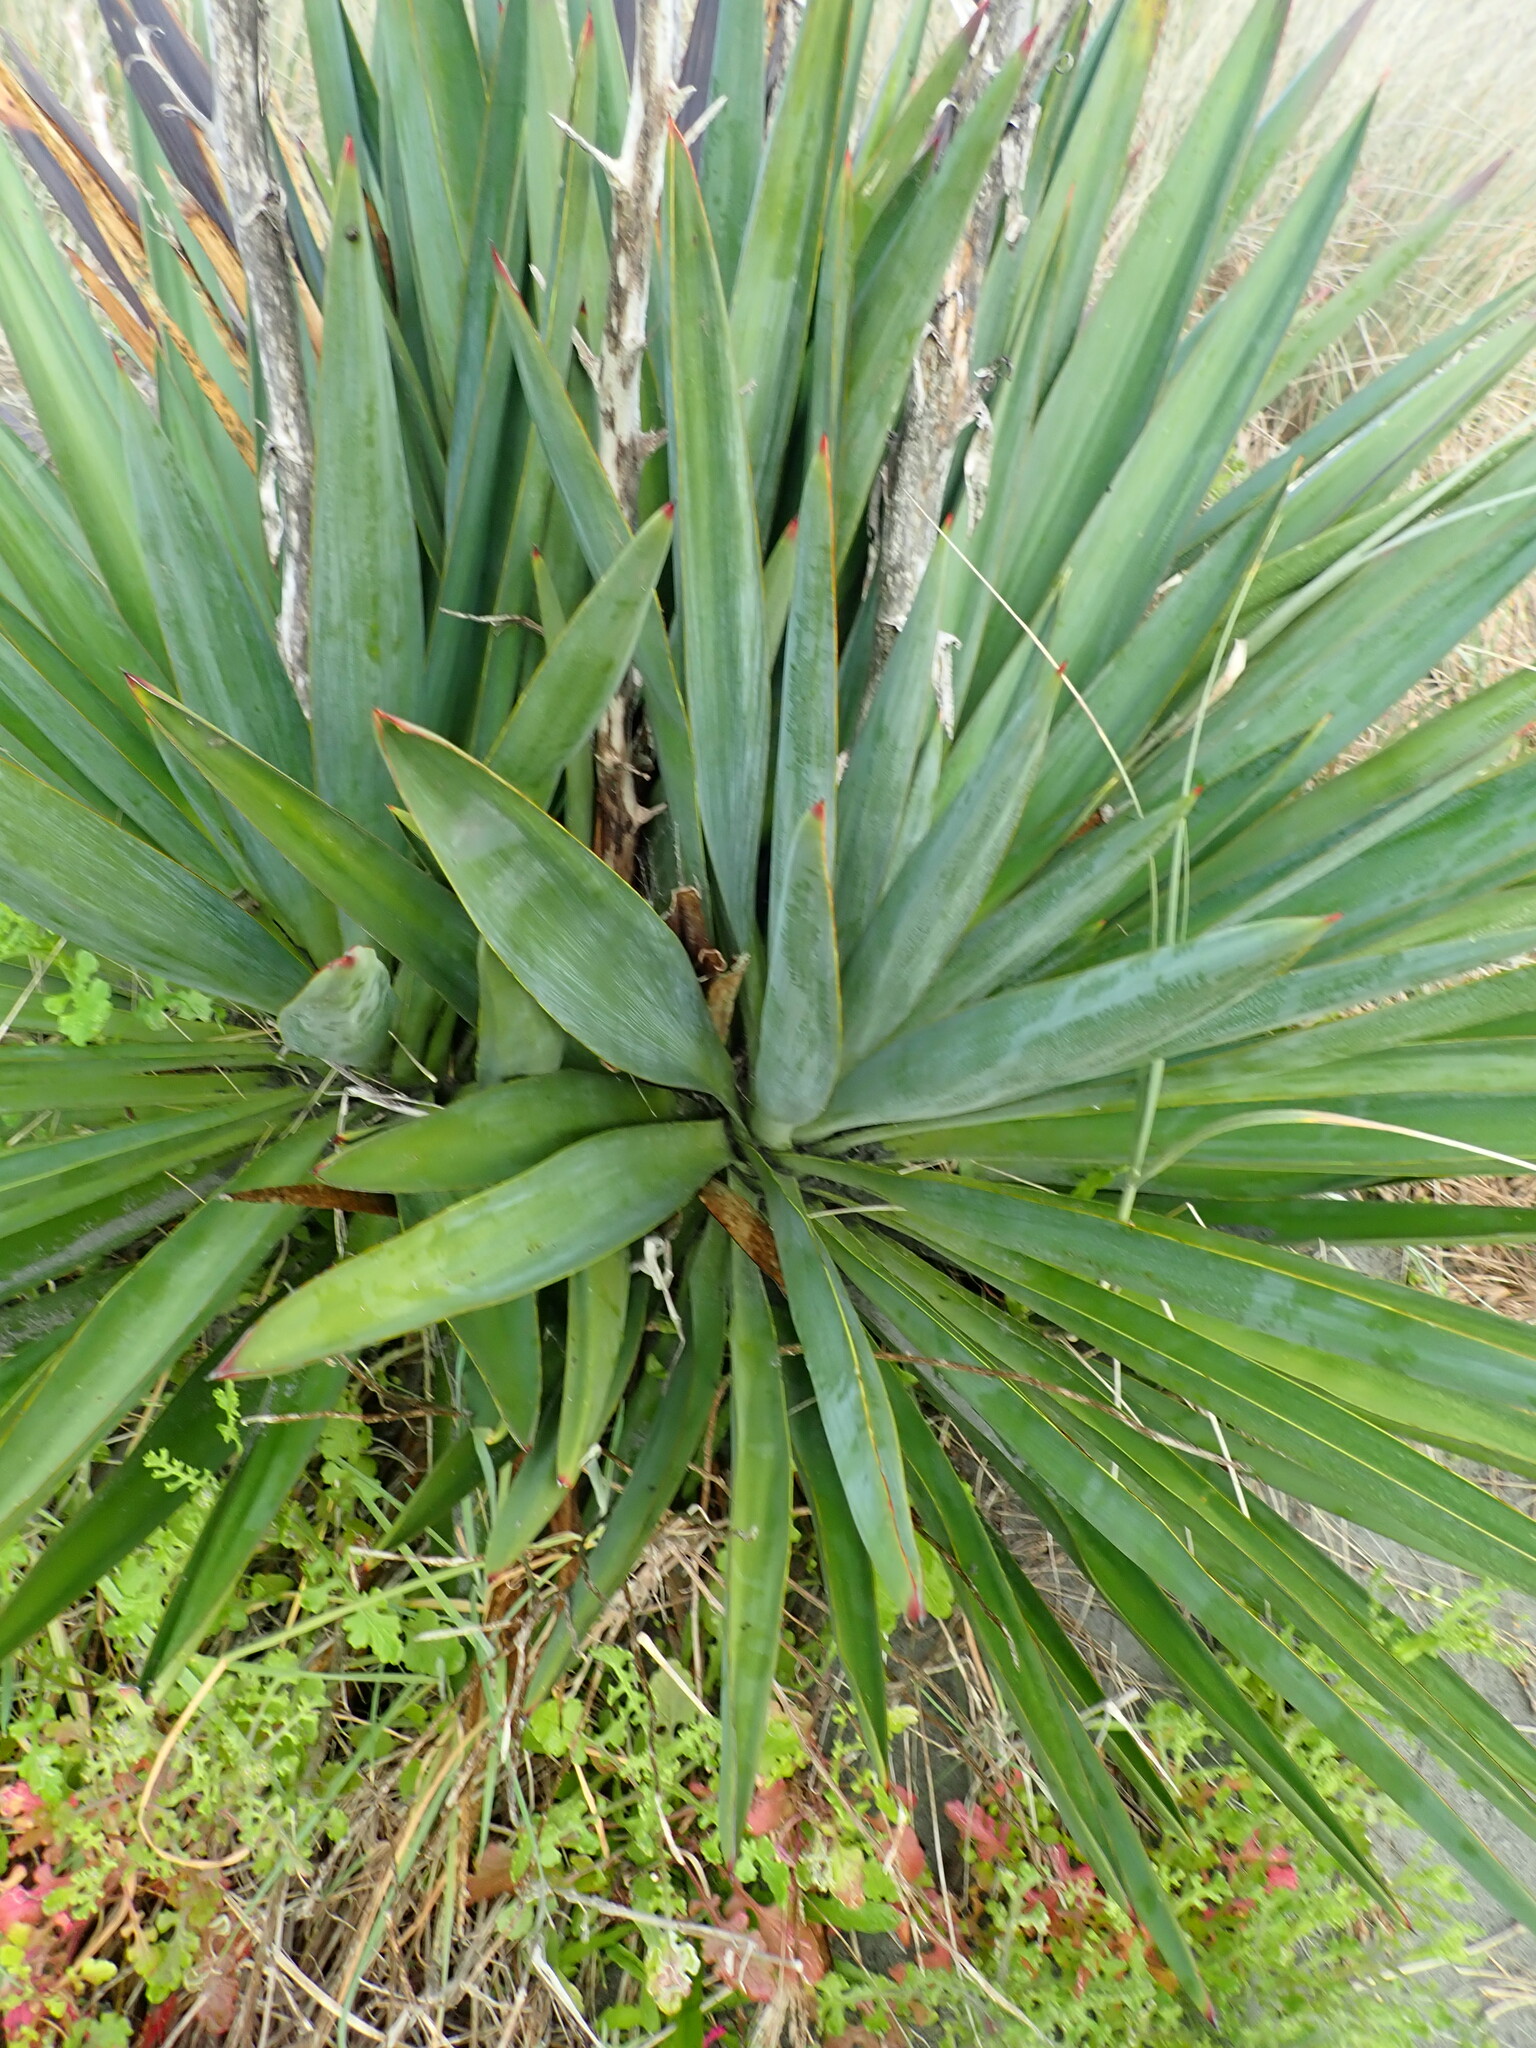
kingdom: Plantae
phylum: Tracheophyta
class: Liliopsida
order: Asparagales
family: Asparagaceae
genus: Yucca
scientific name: Yucca gloriosa
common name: Spanish-dagger
